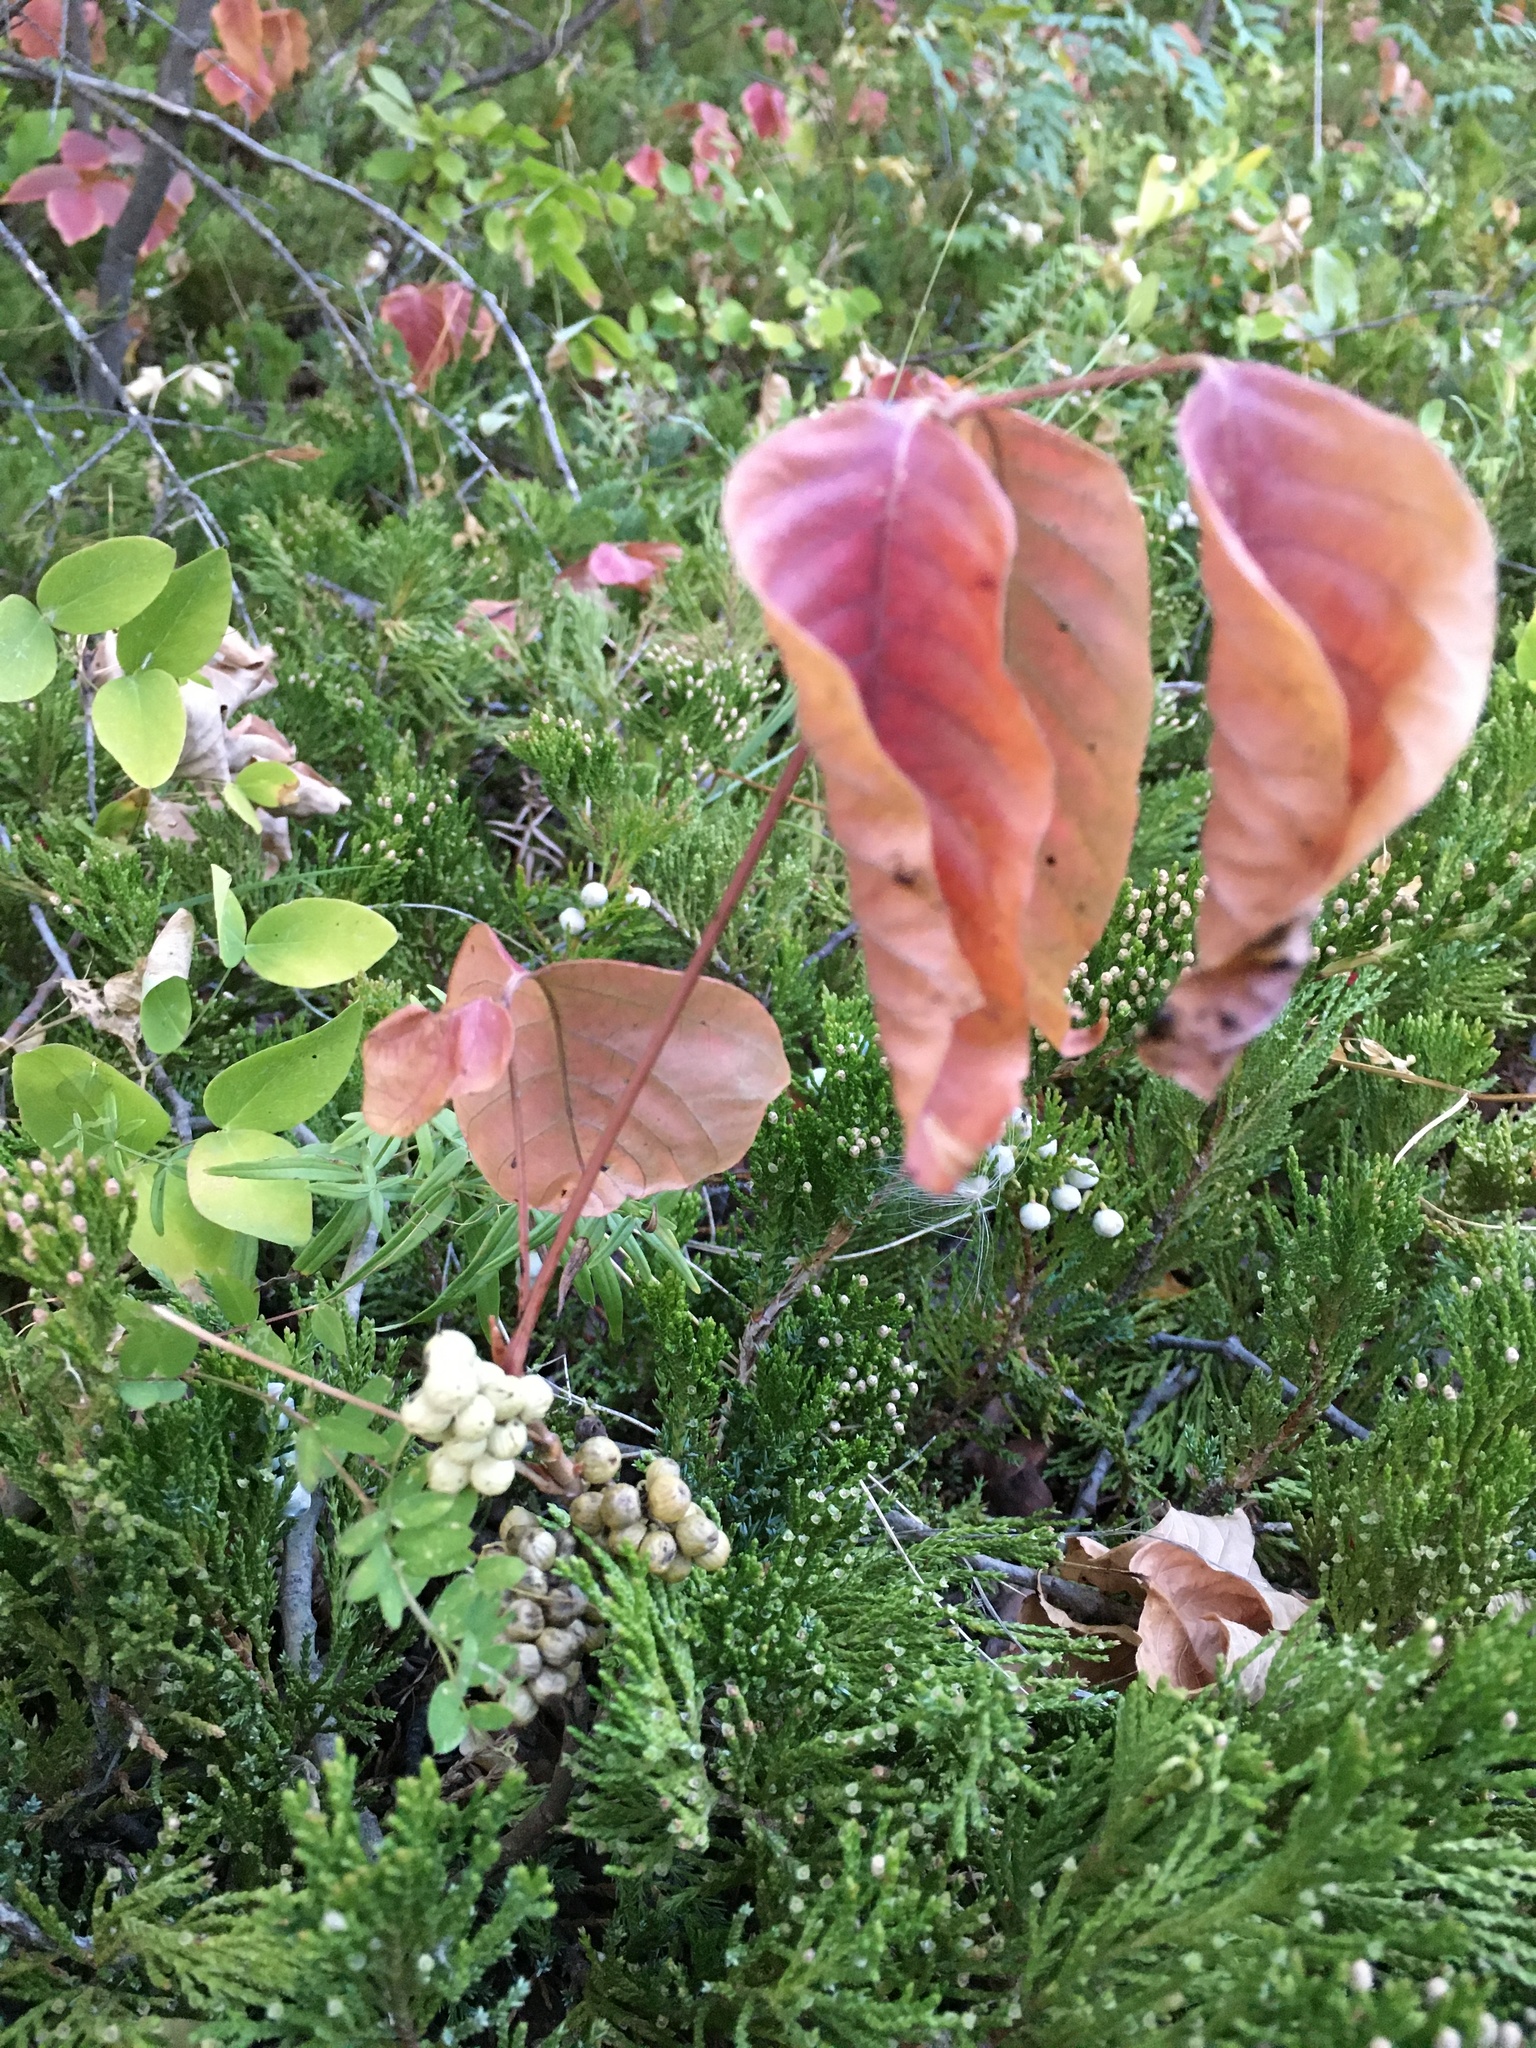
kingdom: Plantae
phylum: Tracheophyta
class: Magnoliopsida
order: Sapindales
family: Anacardiaceae
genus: Toxicodendron
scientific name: Toxicodendron rydbergii
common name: Rydberg's poison-ivy
